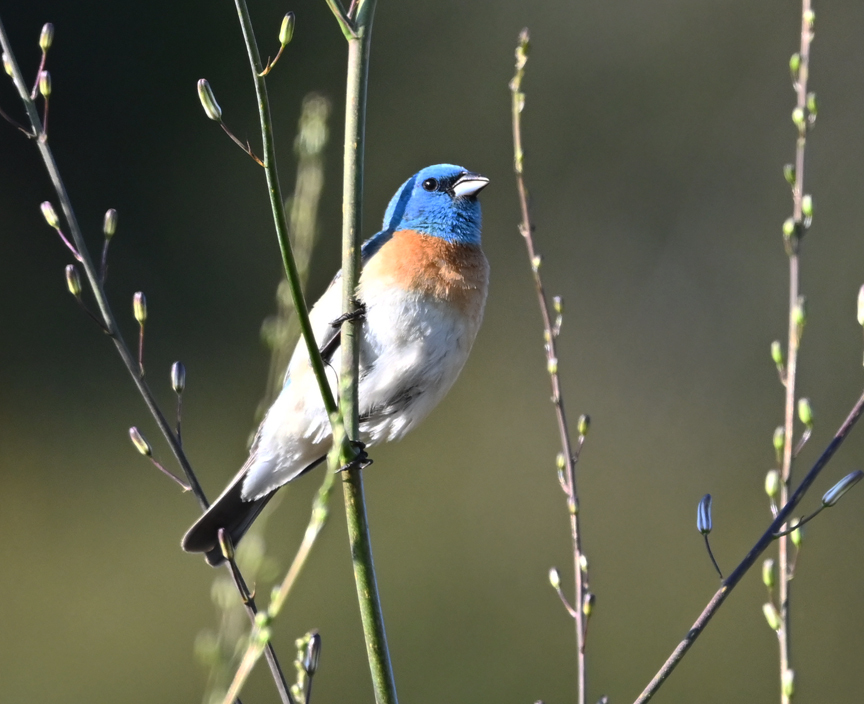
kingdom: Animalia
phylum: Chordata
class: Aves
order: Passeriformes
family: Cardinalidae
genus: Passerina
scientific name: Passerina amoena
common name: Lazuli bunting
